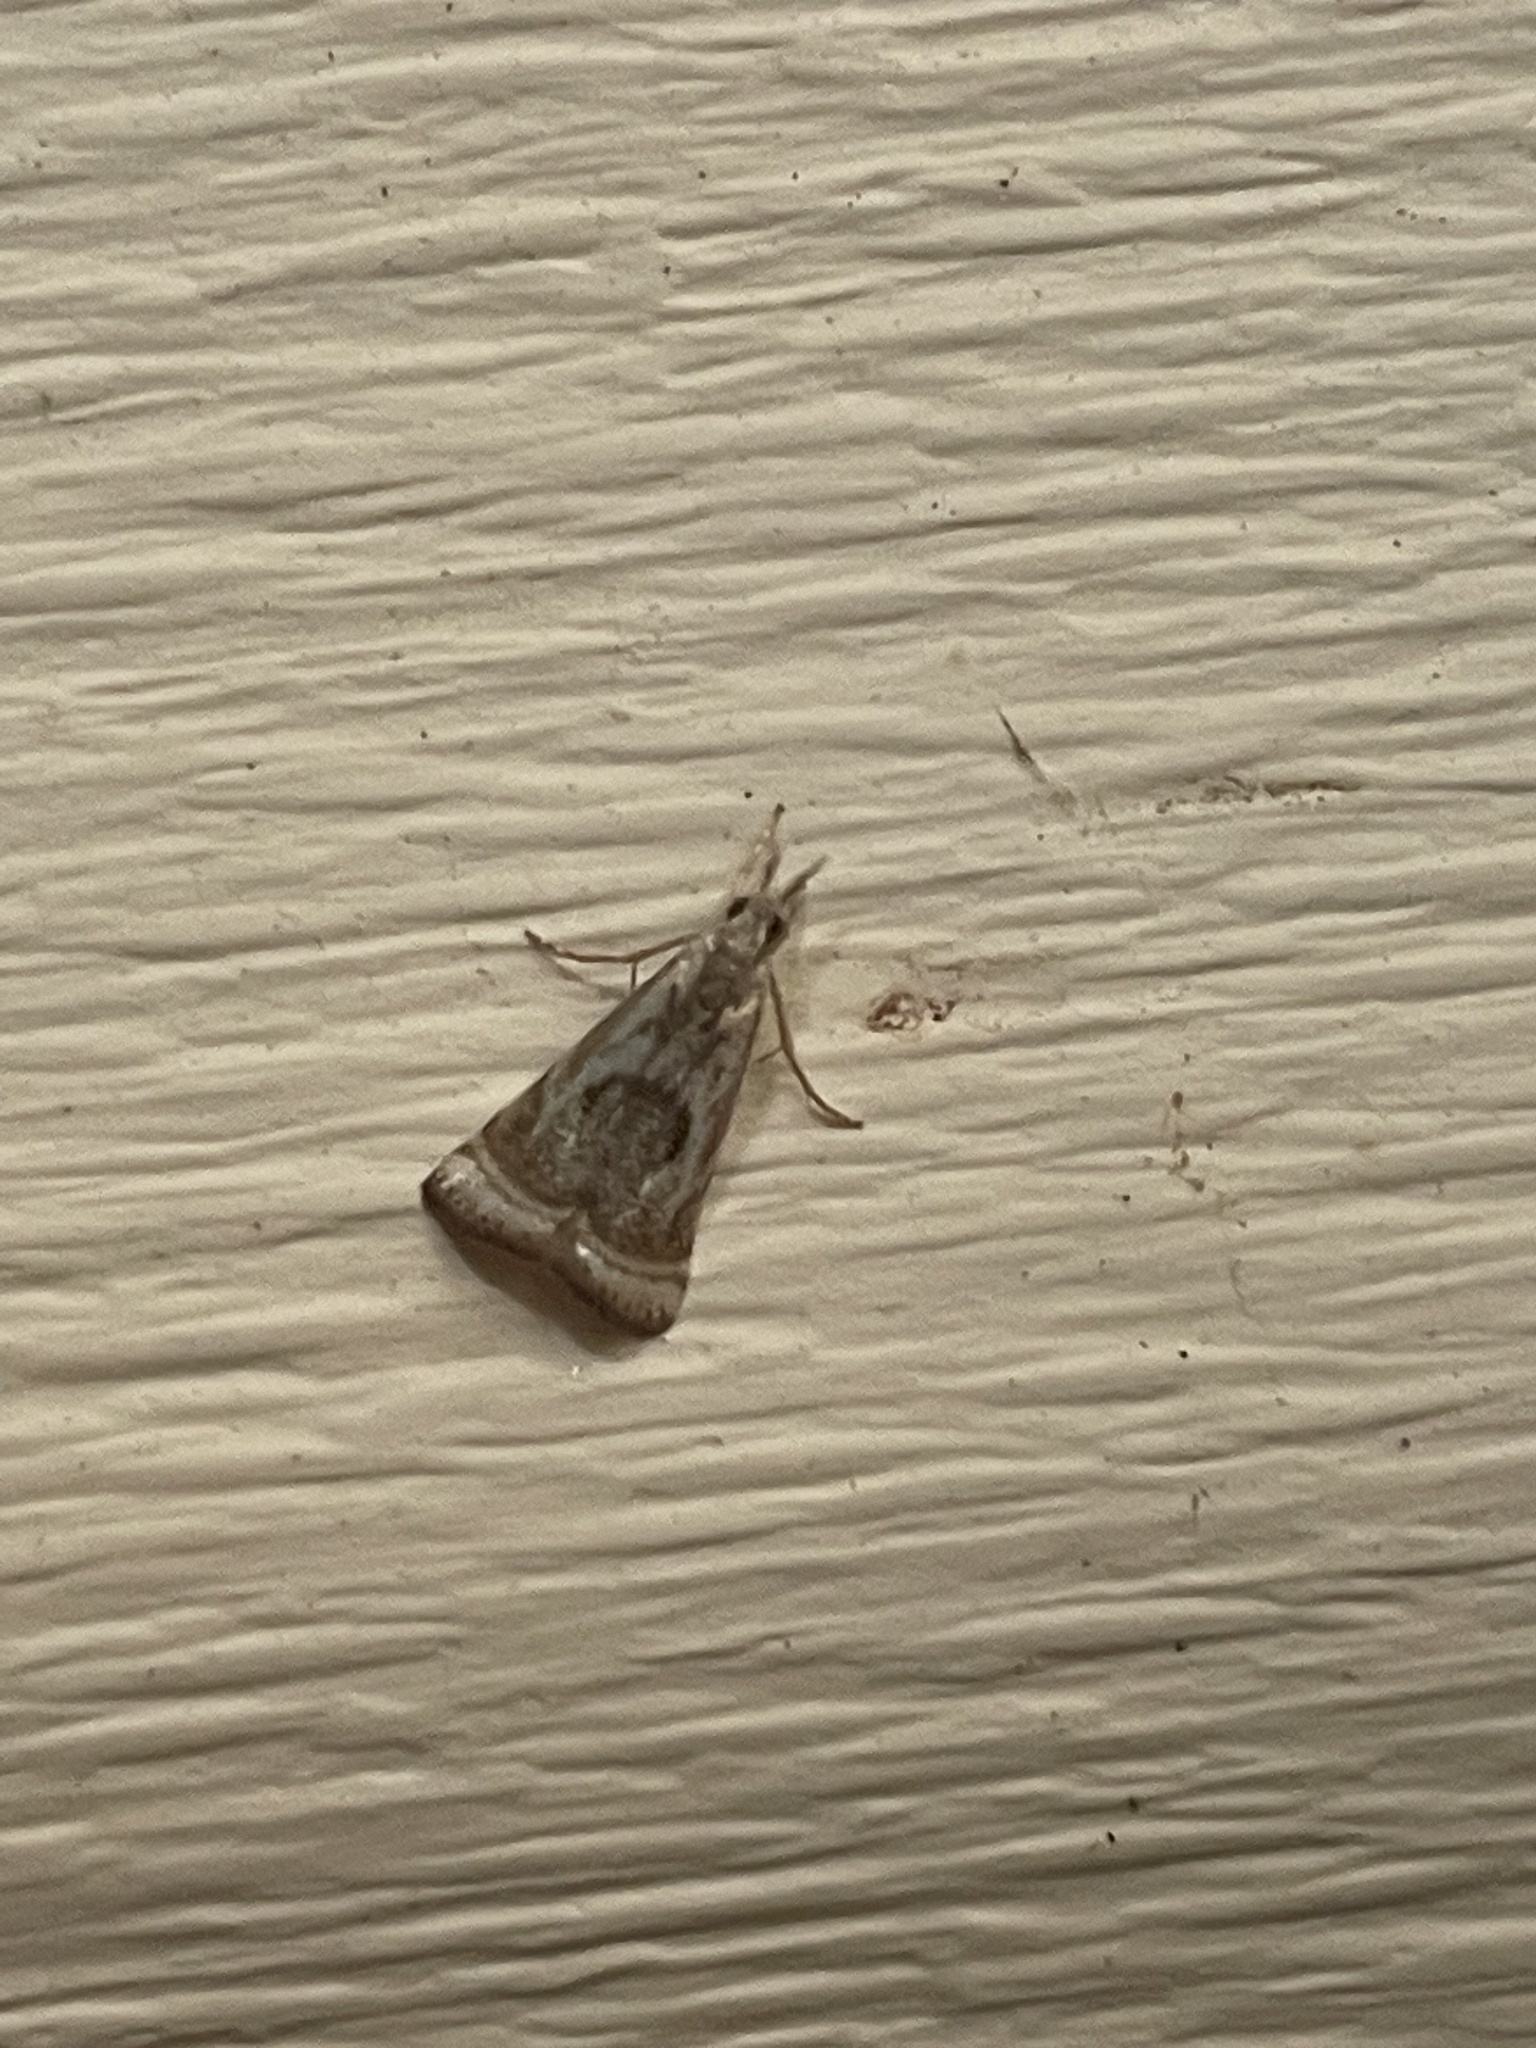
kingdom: Animalia
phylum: Arthropoda
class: Insecta
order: Lepidoptera
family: Crambidae
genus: Microcrambus
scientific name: Microcrambus elegans
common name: Elegant grass-veneer
